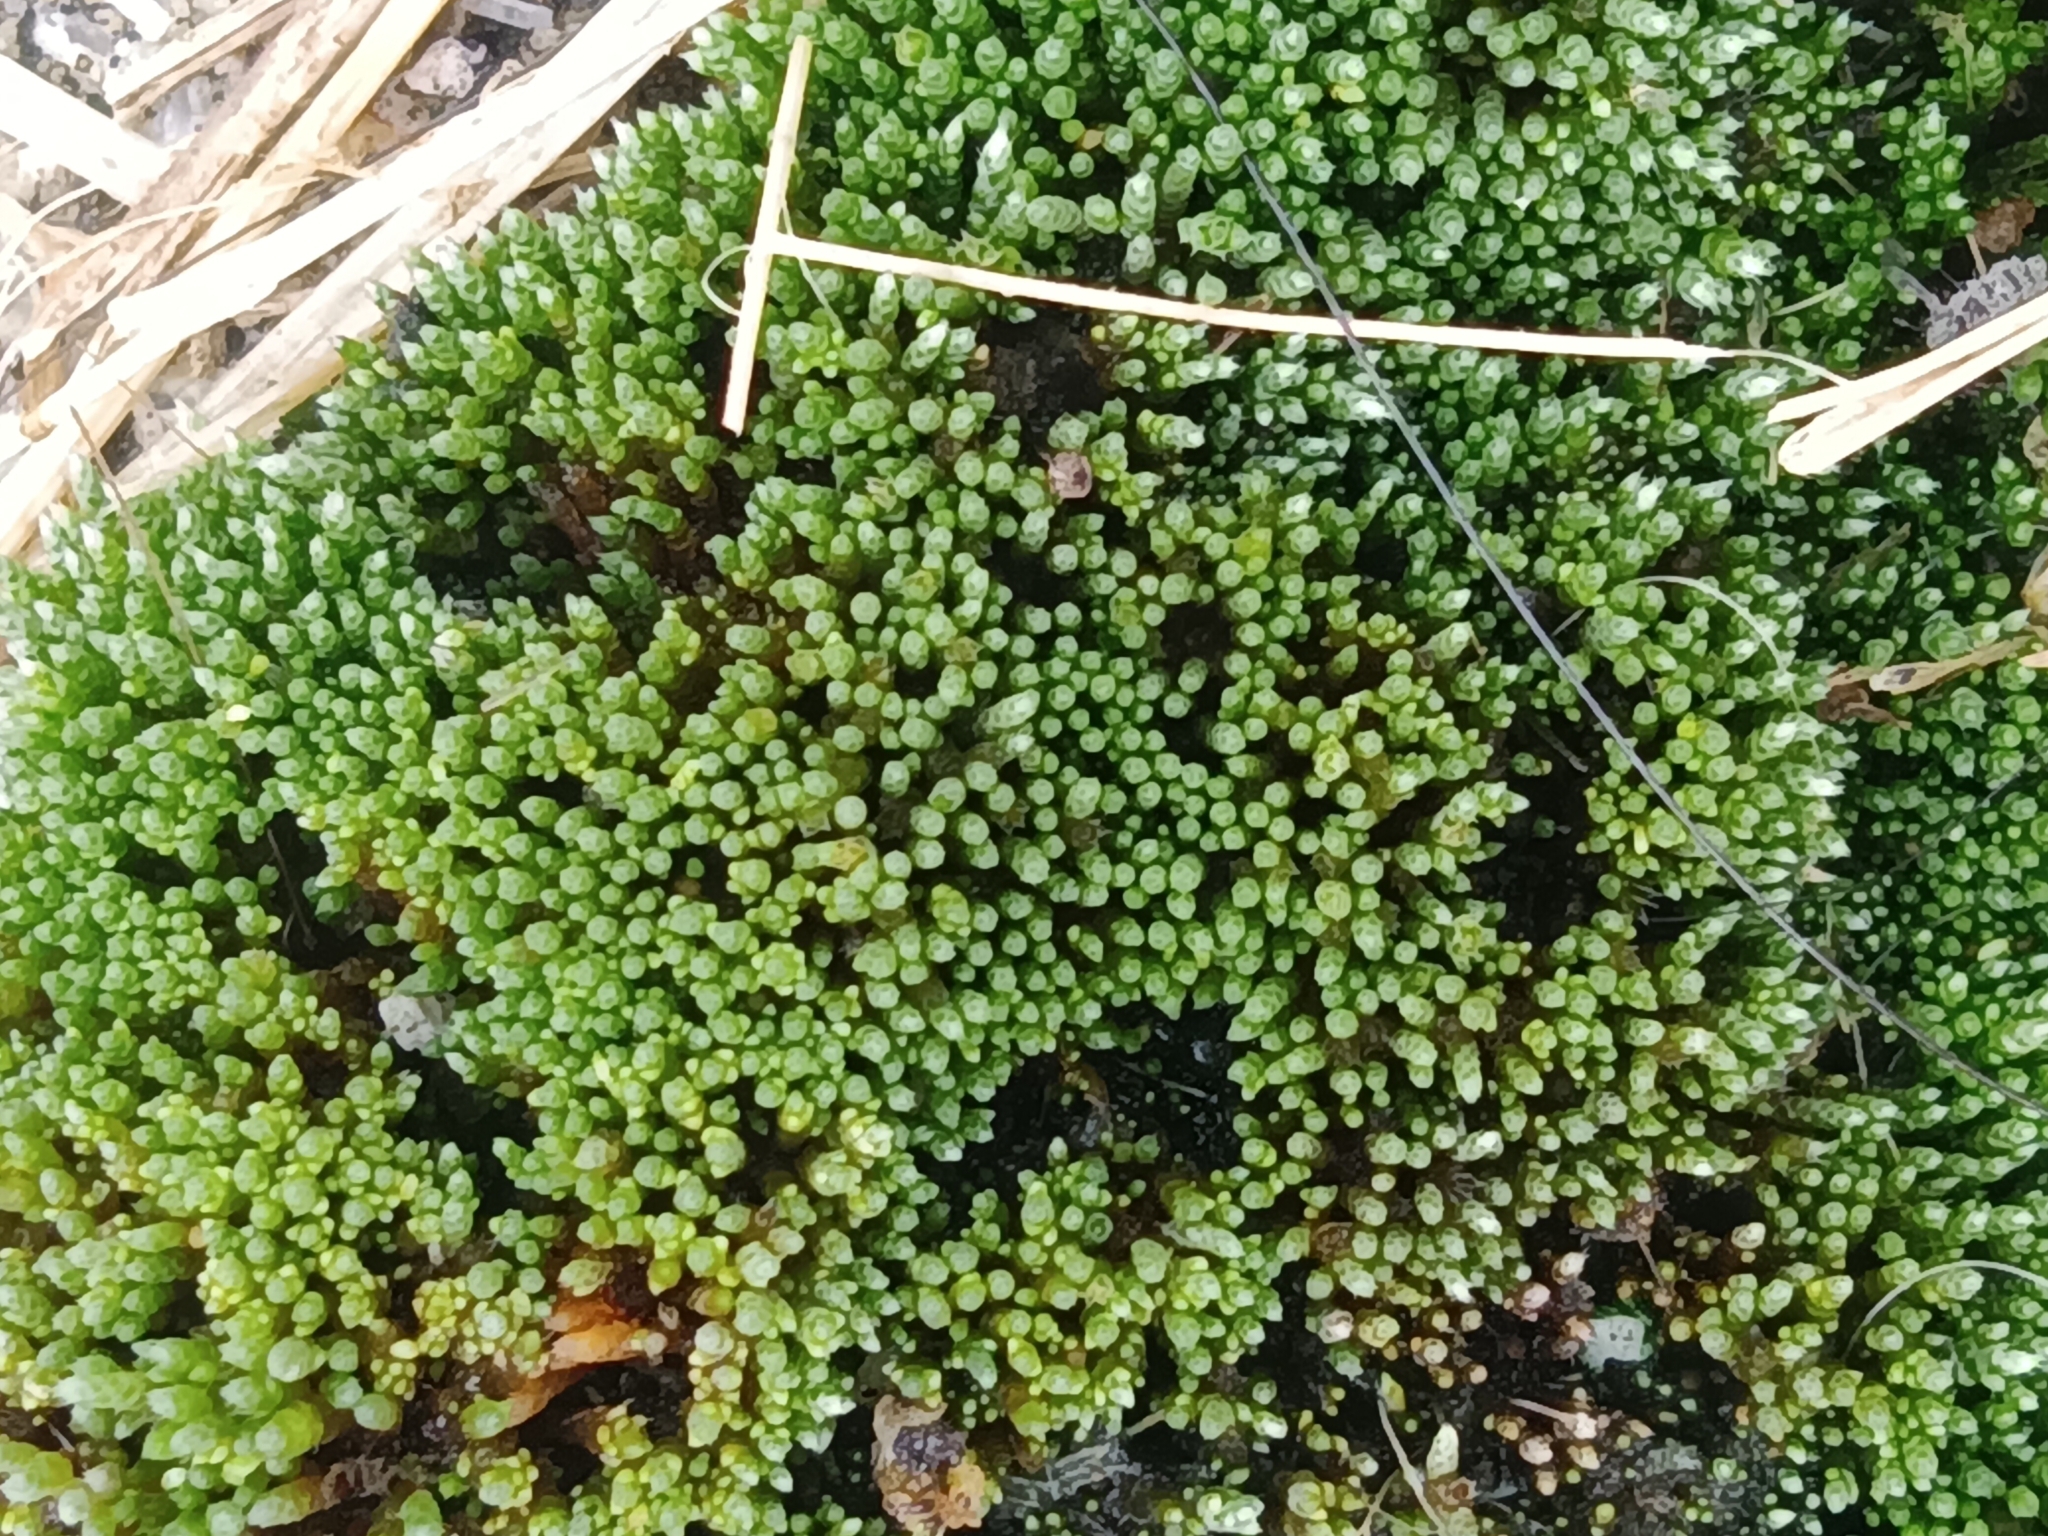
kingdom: Plantae
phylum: Bryophyta
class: Bryopsida
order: Bryales
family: Bryaceae
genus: Bryum
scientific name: Bryum argenteum
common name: Silver-moss
